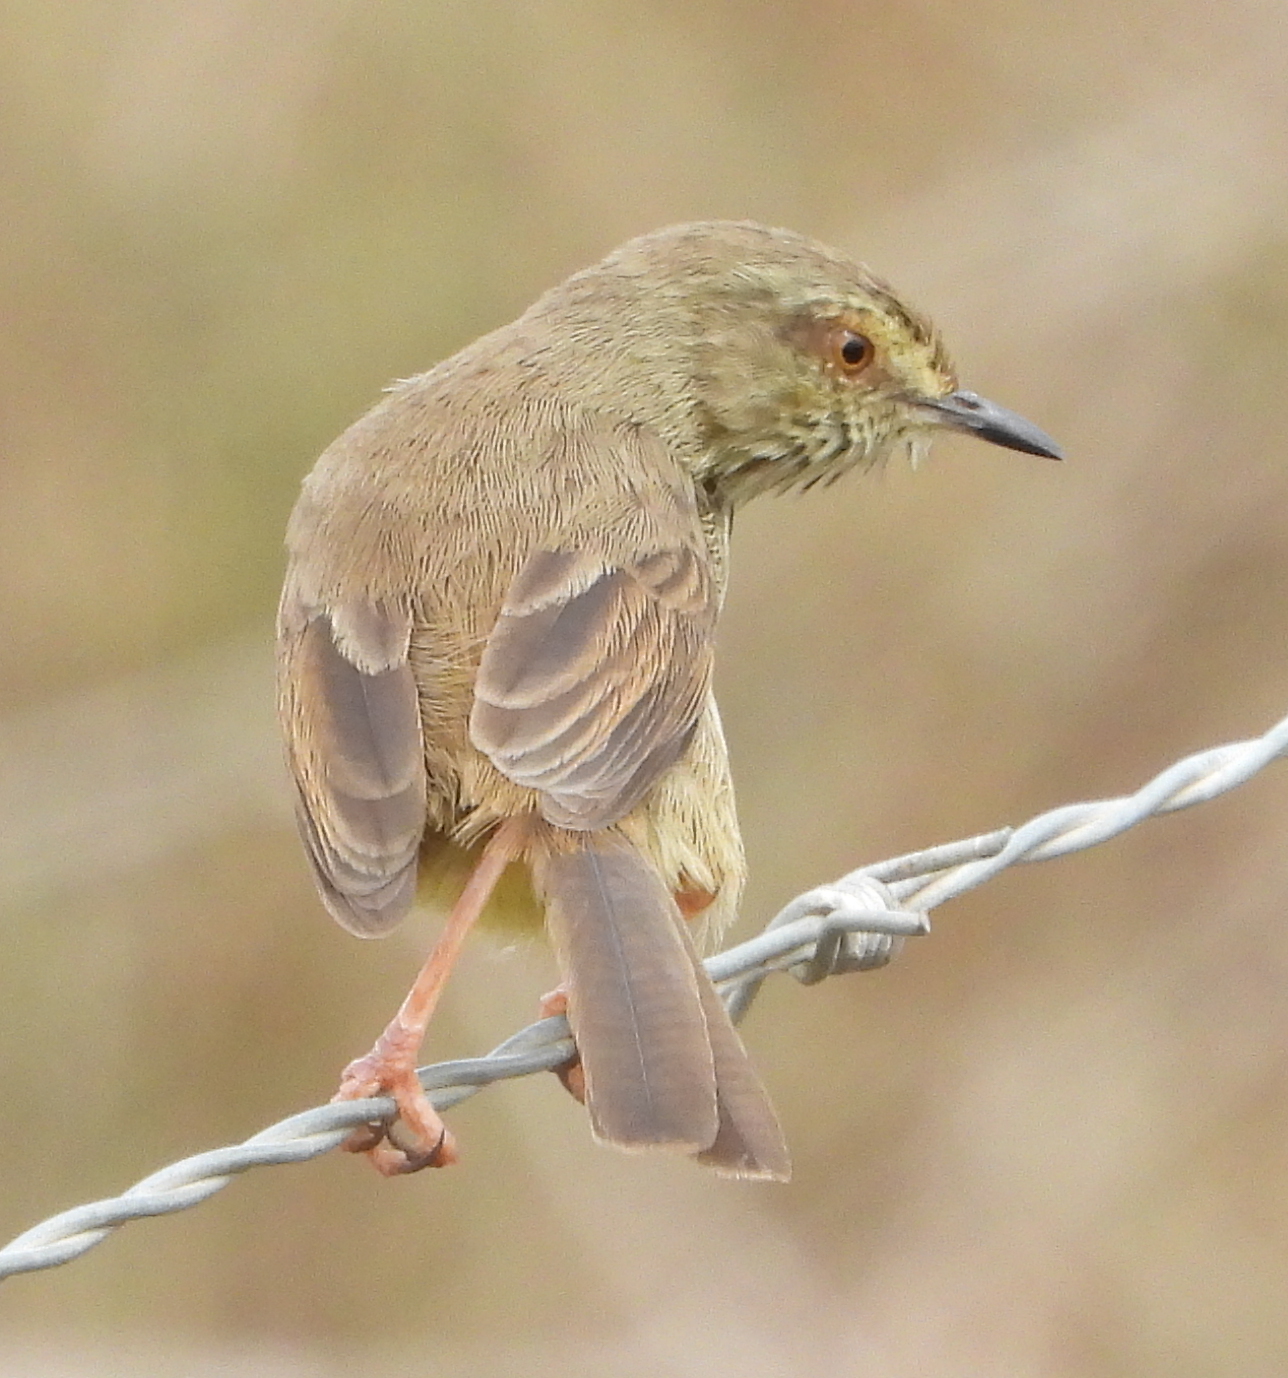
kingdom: Animalia
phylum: Chordata
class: Aves
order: Passeriformes
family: Cisticolidae
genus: Prinia
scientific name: Prinia maculosa
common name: Karoo prinia
